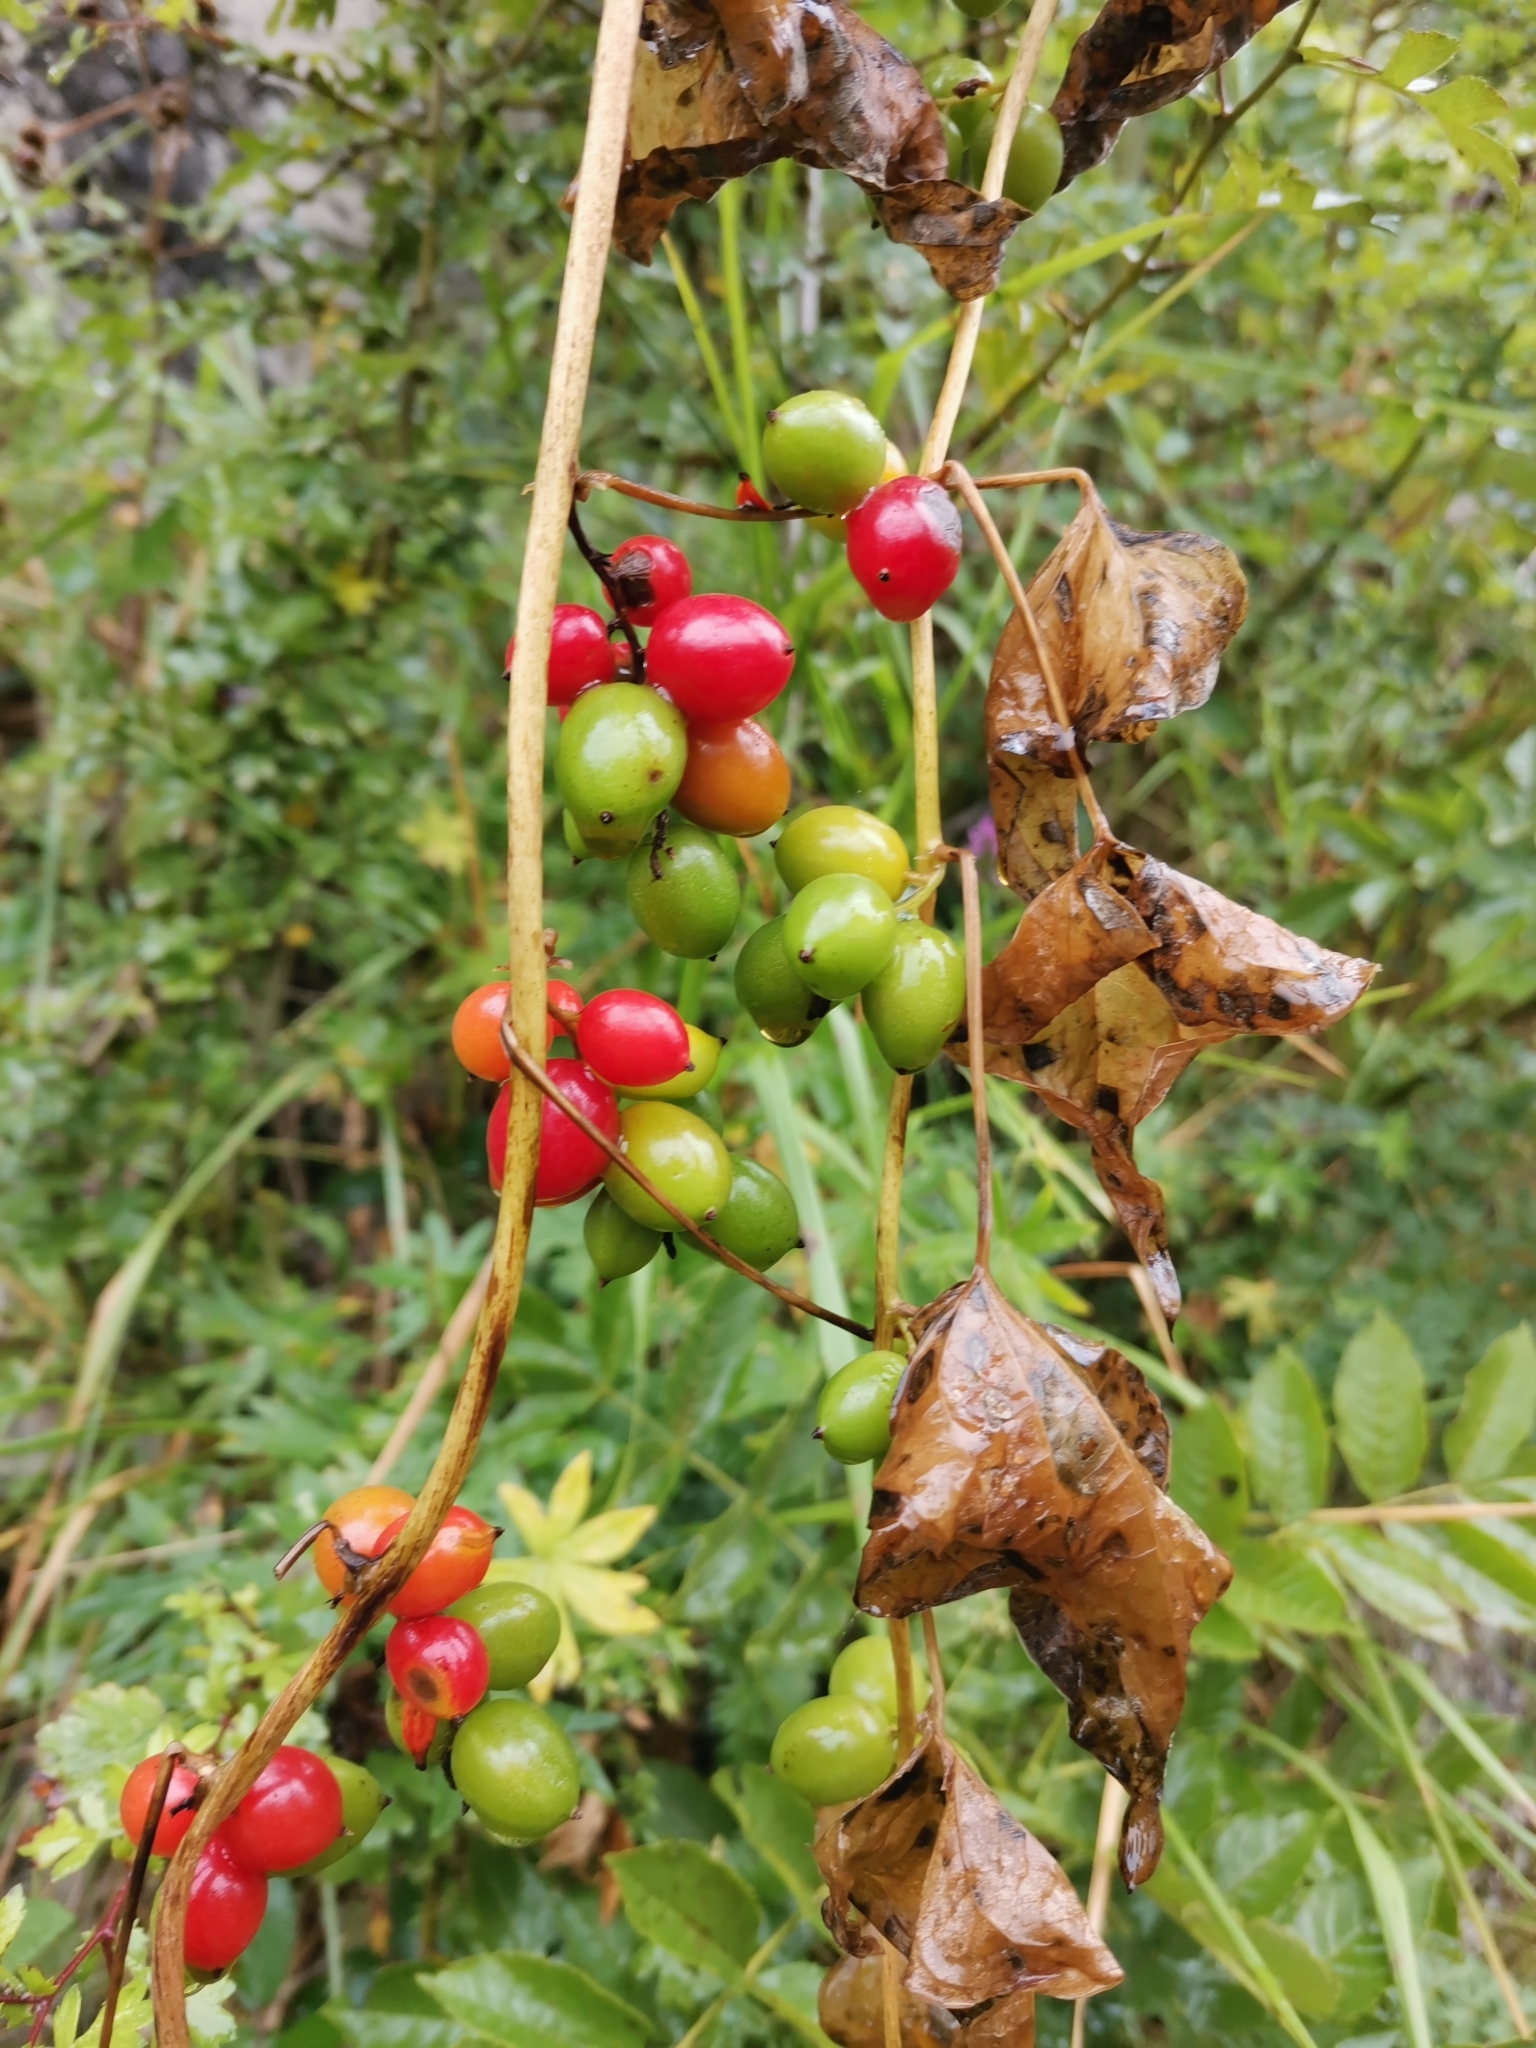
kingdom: Plantae
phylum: Tracheophyta
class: Liliopsida
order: Dioscoreales
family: Dioscoreaceae
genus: Dioscorea
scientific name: Dioscorea communis
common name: Black-bindweed
